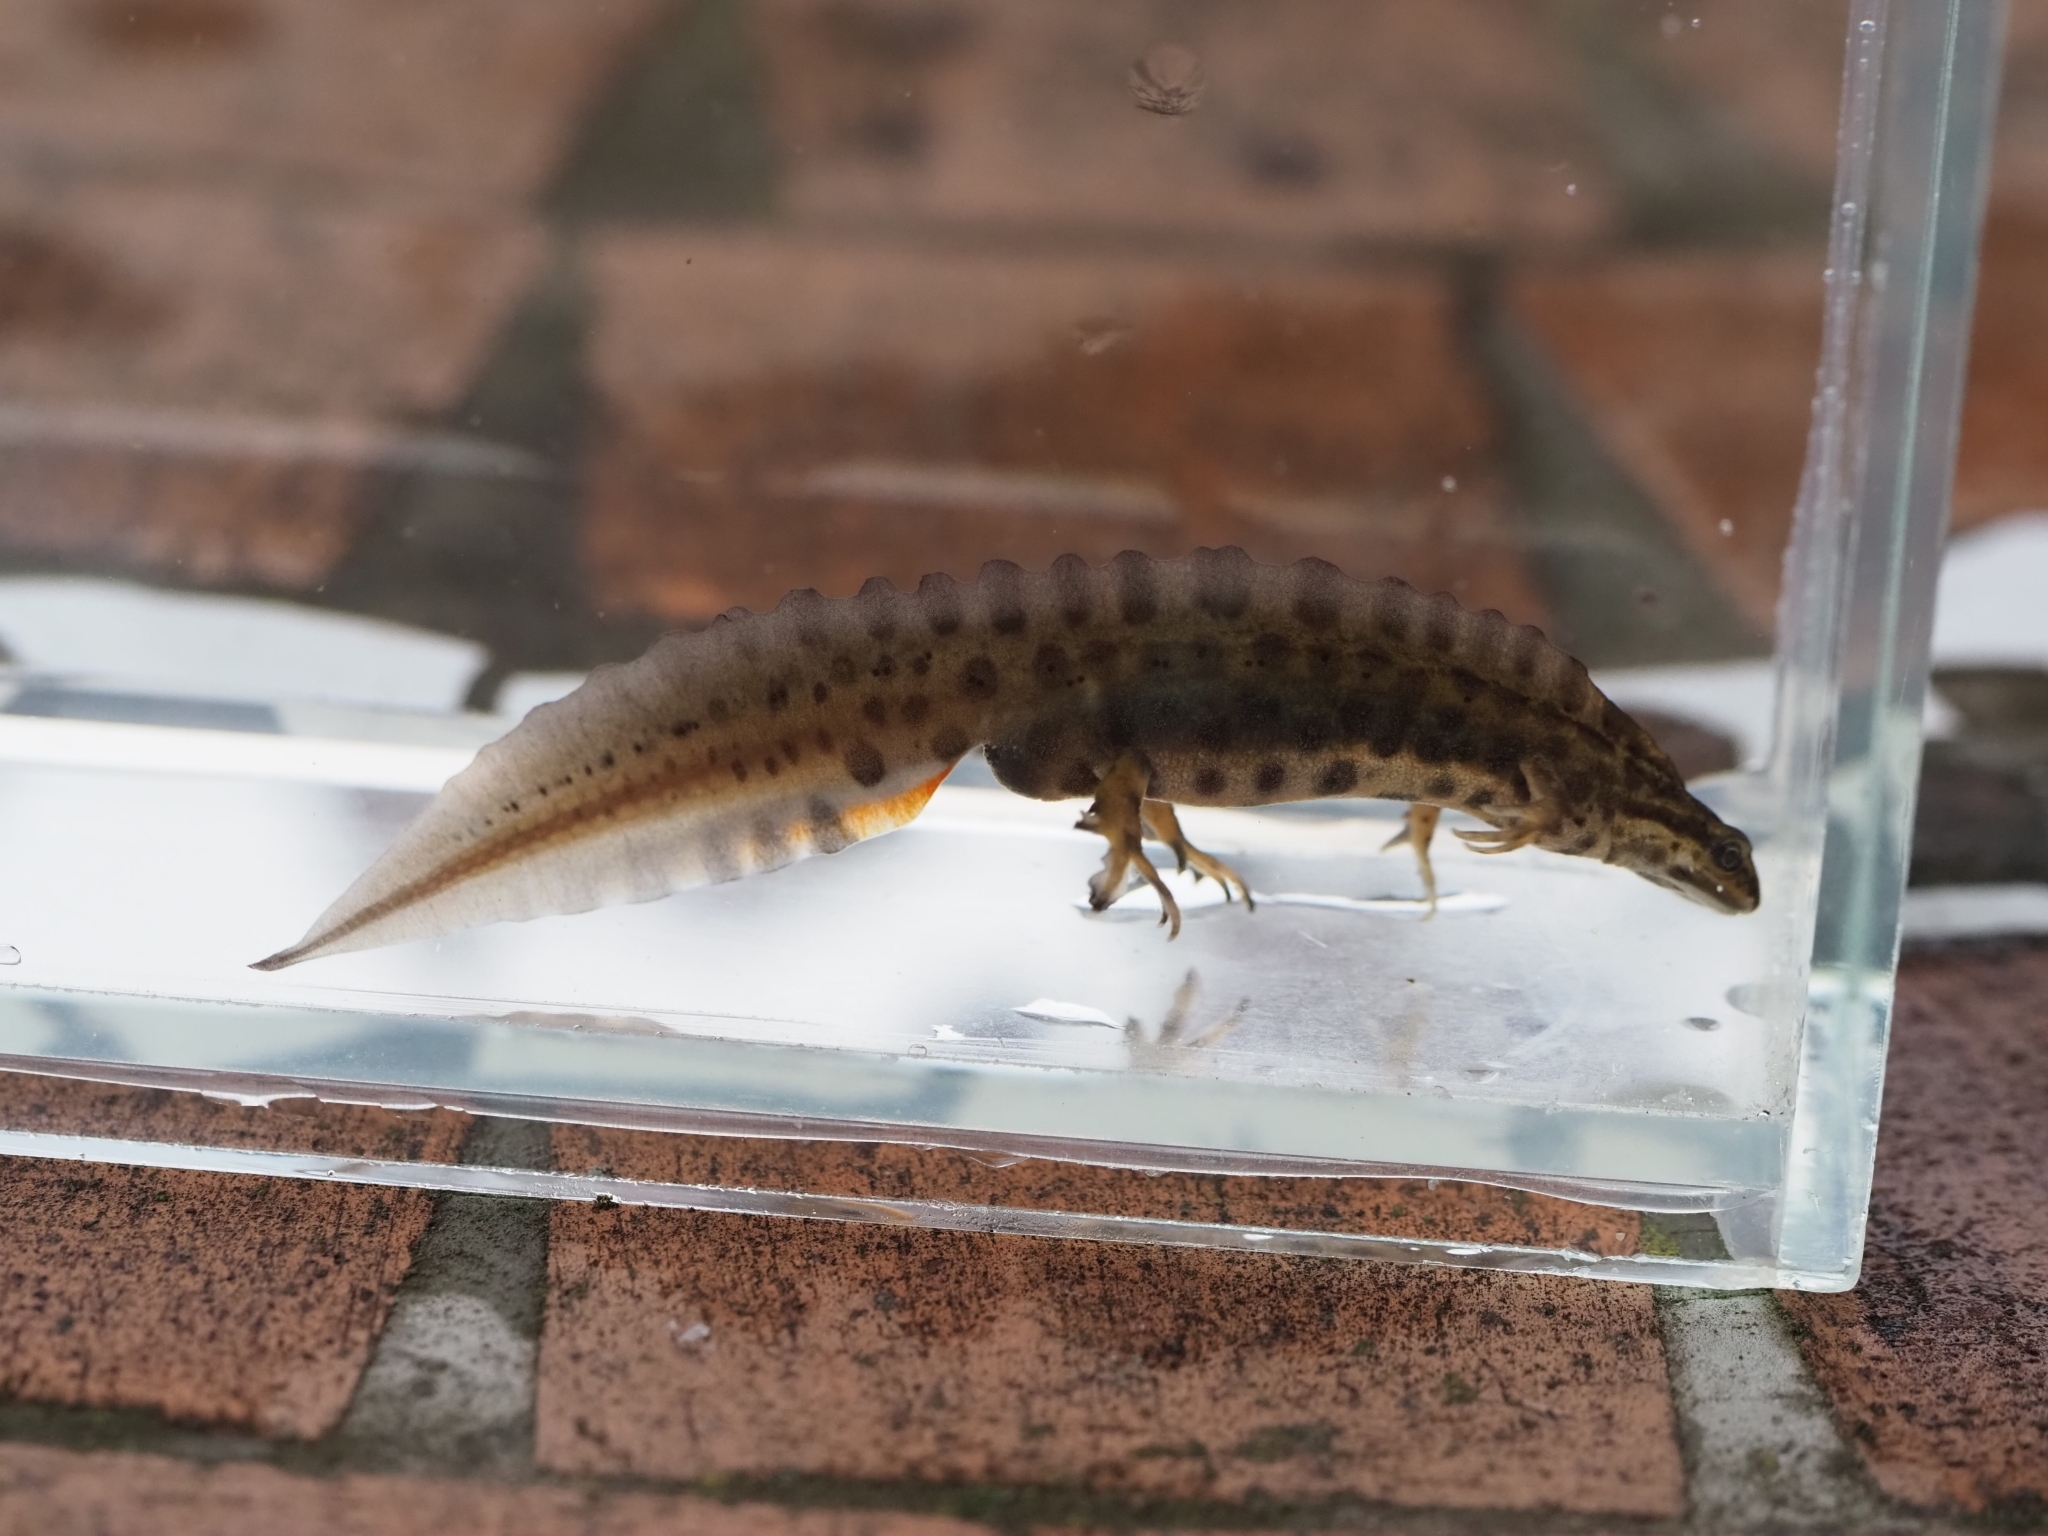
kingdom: Animalia
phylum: Chordata
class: Amphibia
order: Caudata
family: Salamandridae
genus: Lissotriton
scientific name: Lissotriton vulgaris
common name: Smooth newt
